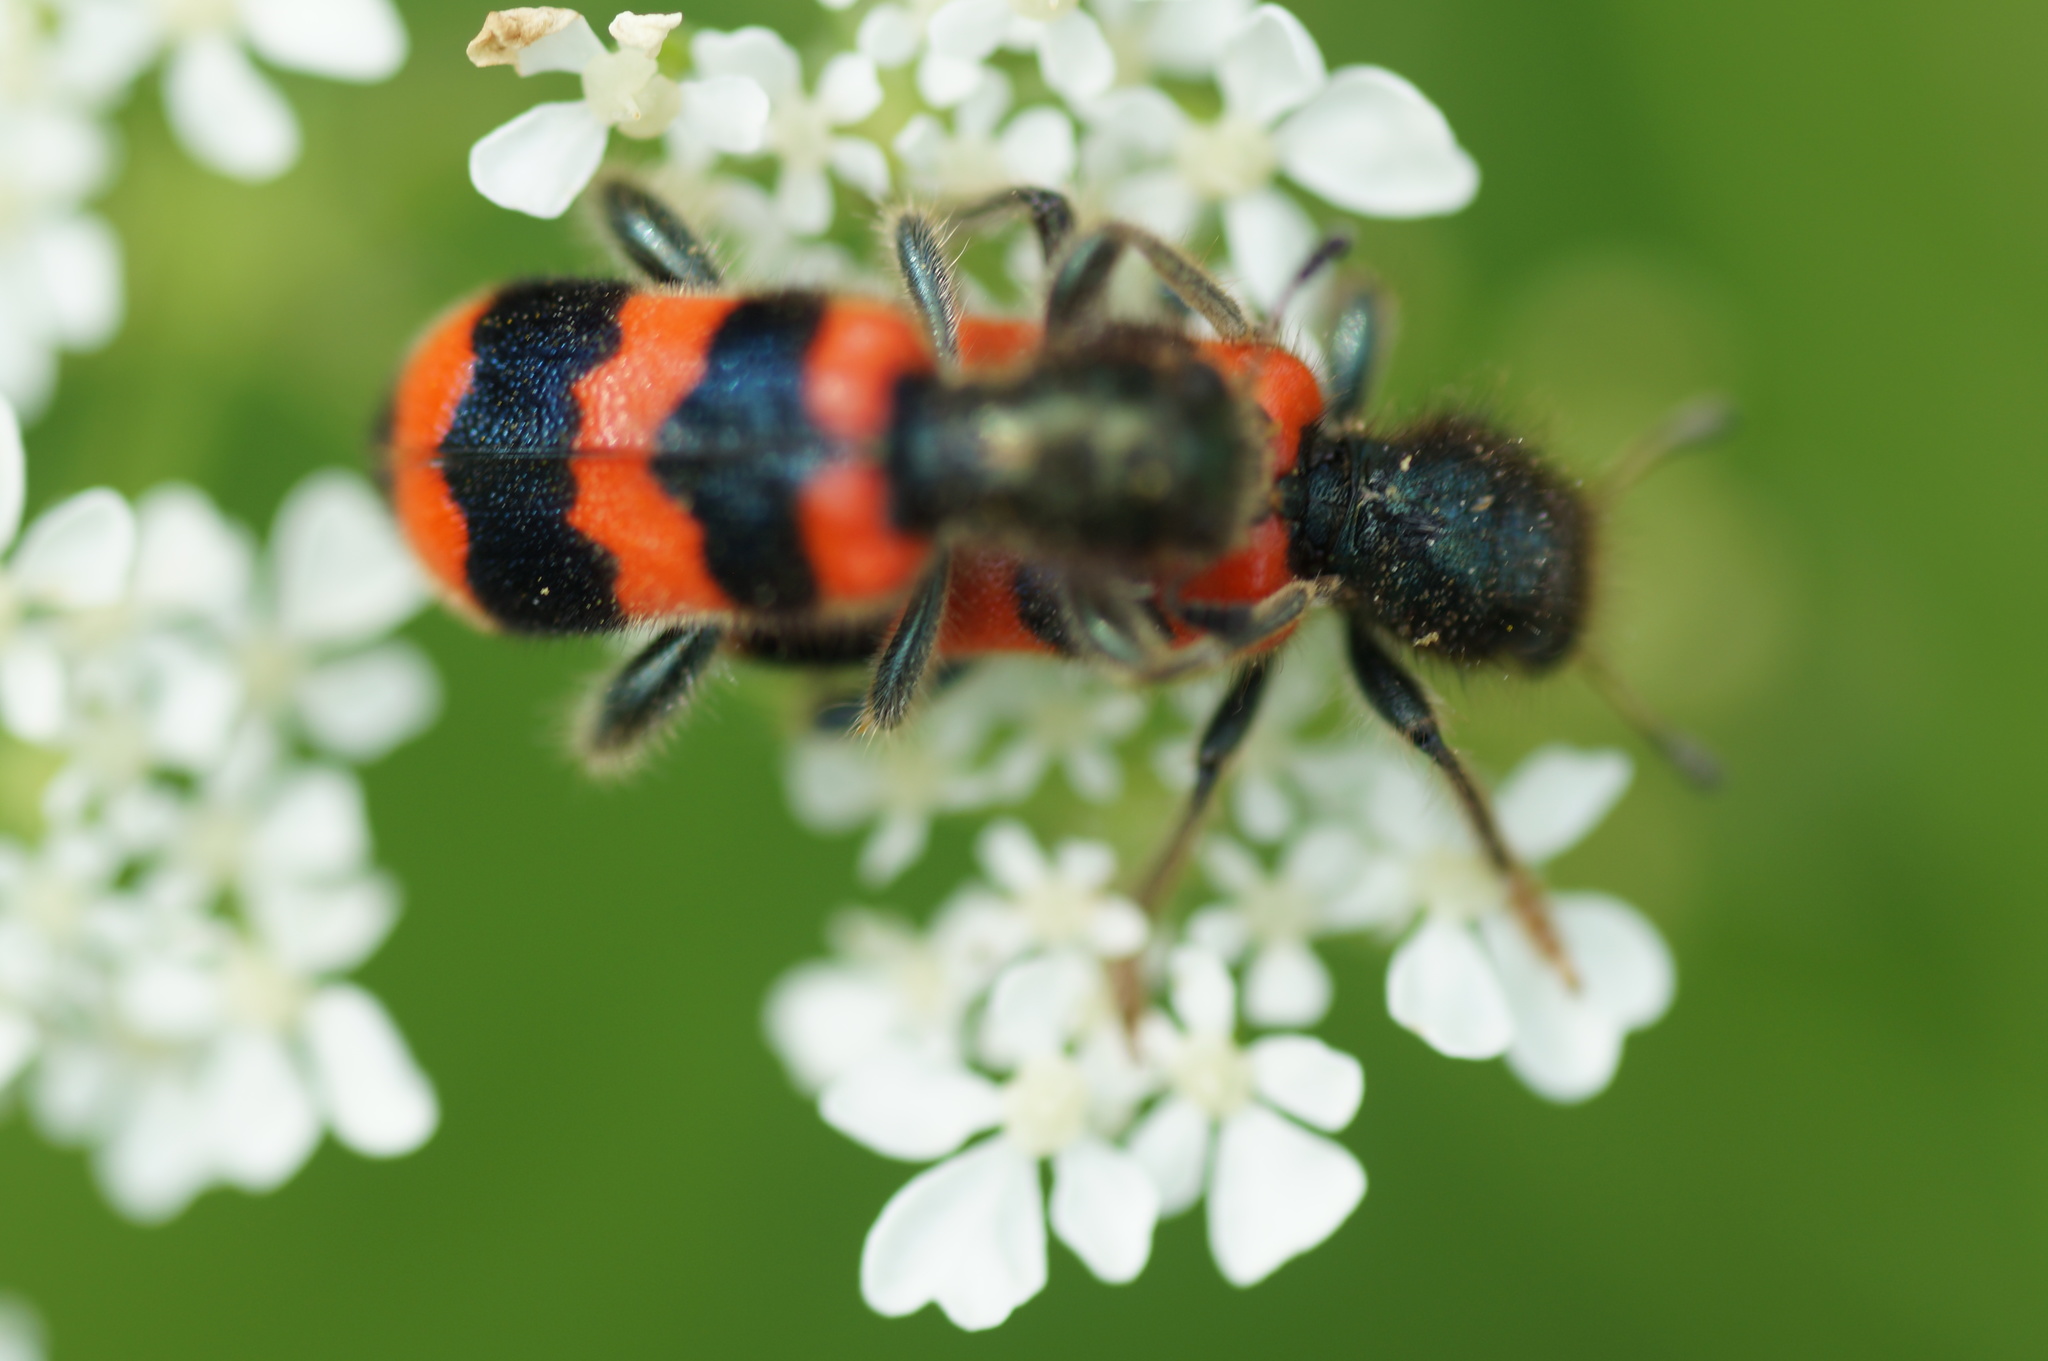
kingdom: Animalia
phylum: Arthropoda
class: Insecta
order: Coleoptera
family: Cleridae
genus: Trichodes
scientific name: Trichodes apiarius
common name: Bee-eating beetle
